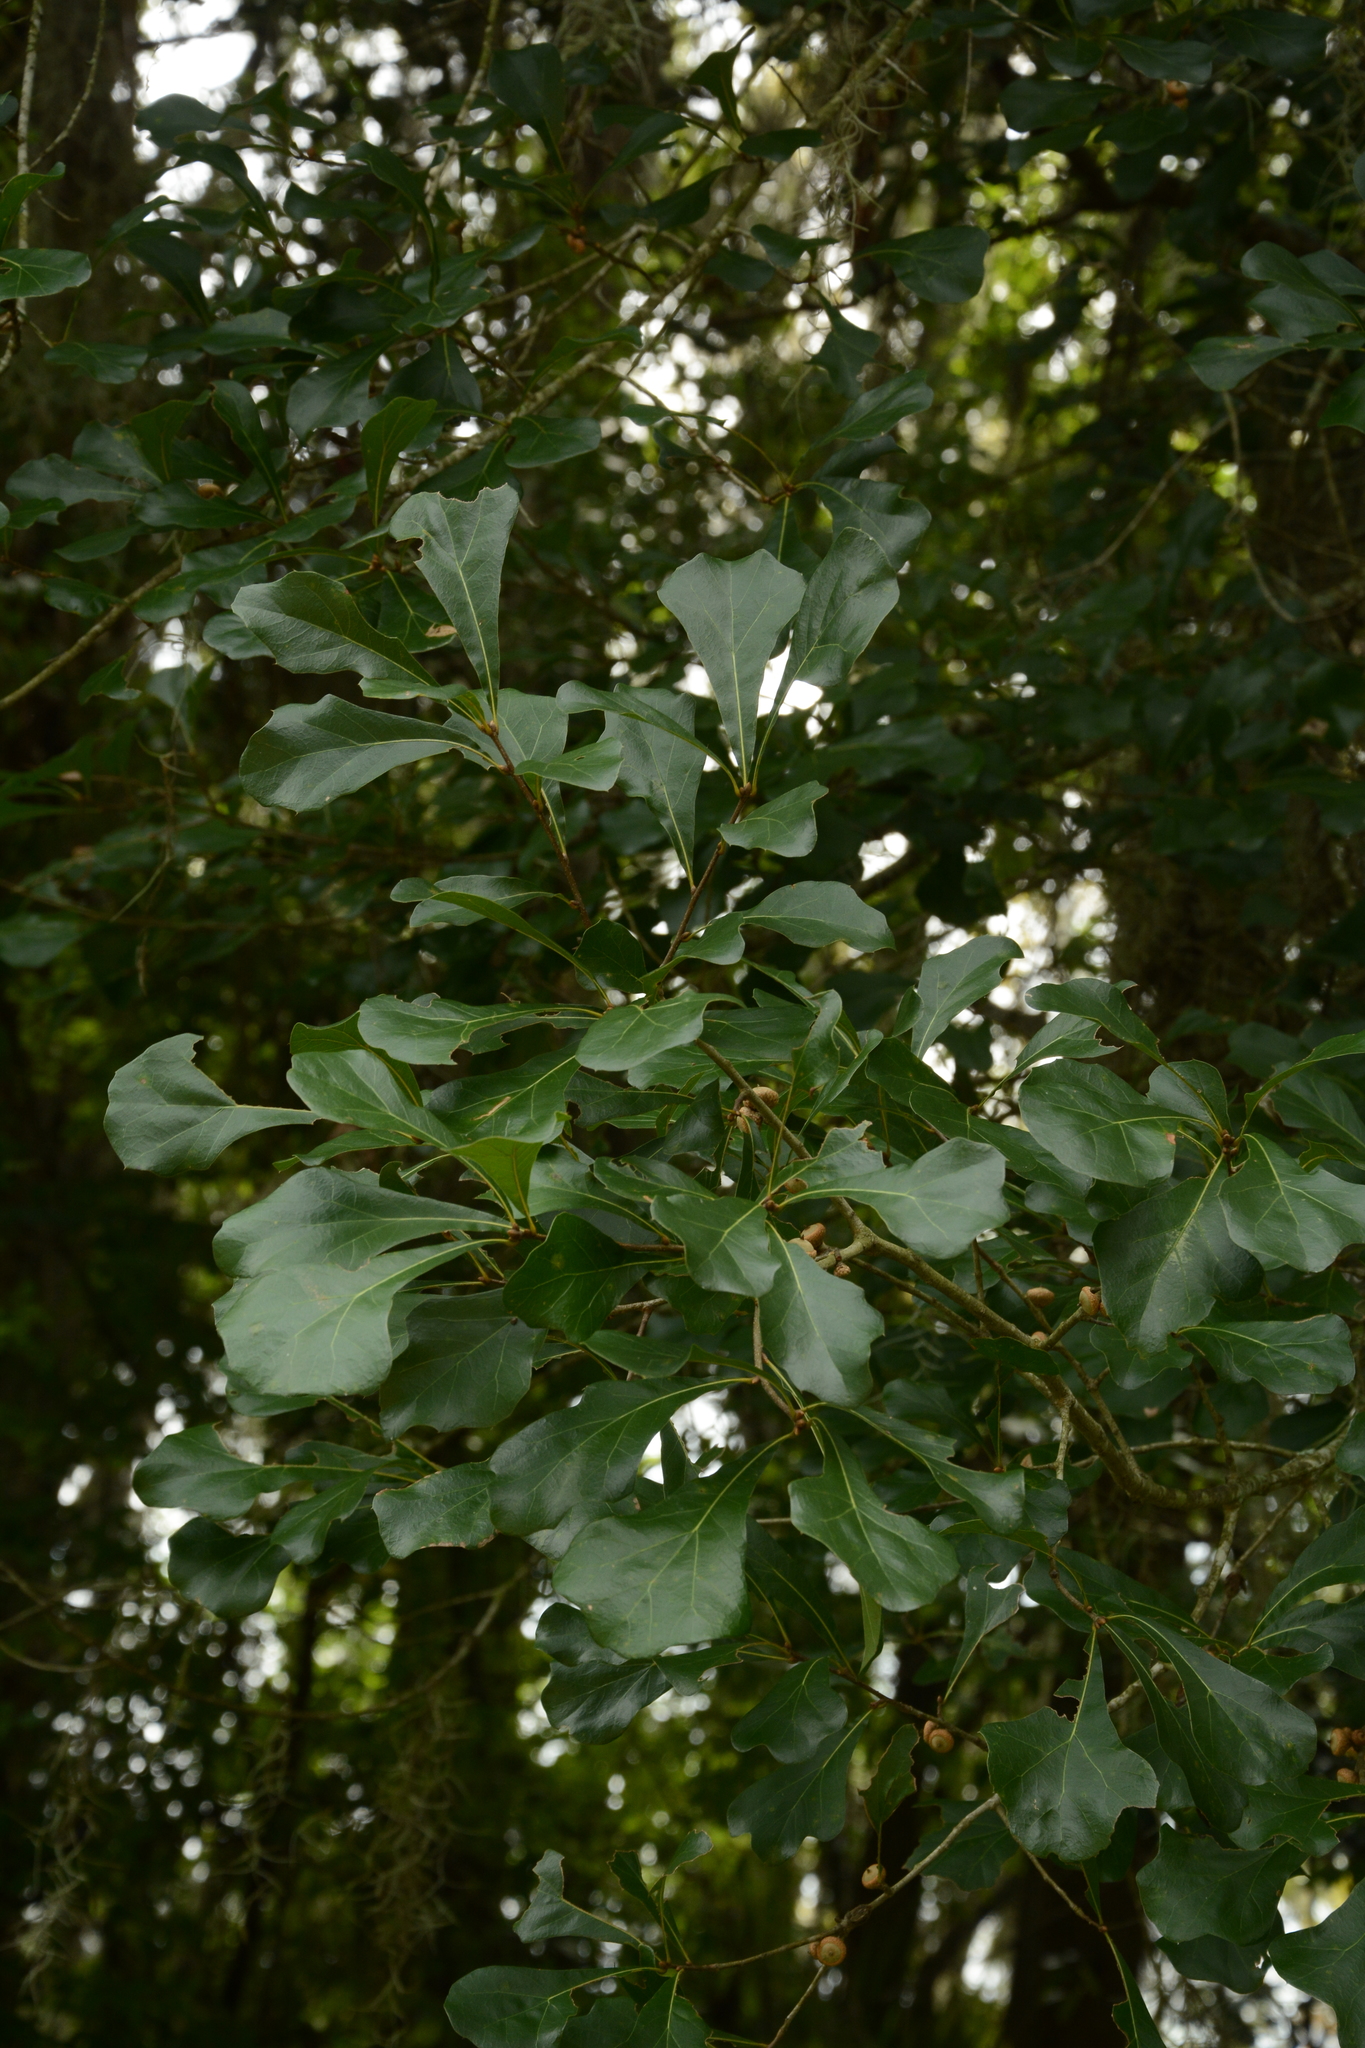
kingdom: Plantae
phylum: Tracheophyta
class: Magnoliopsida
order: Fagales
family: Fagaceae
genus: Quercus
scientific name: Quercus nigra
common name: Water oak
